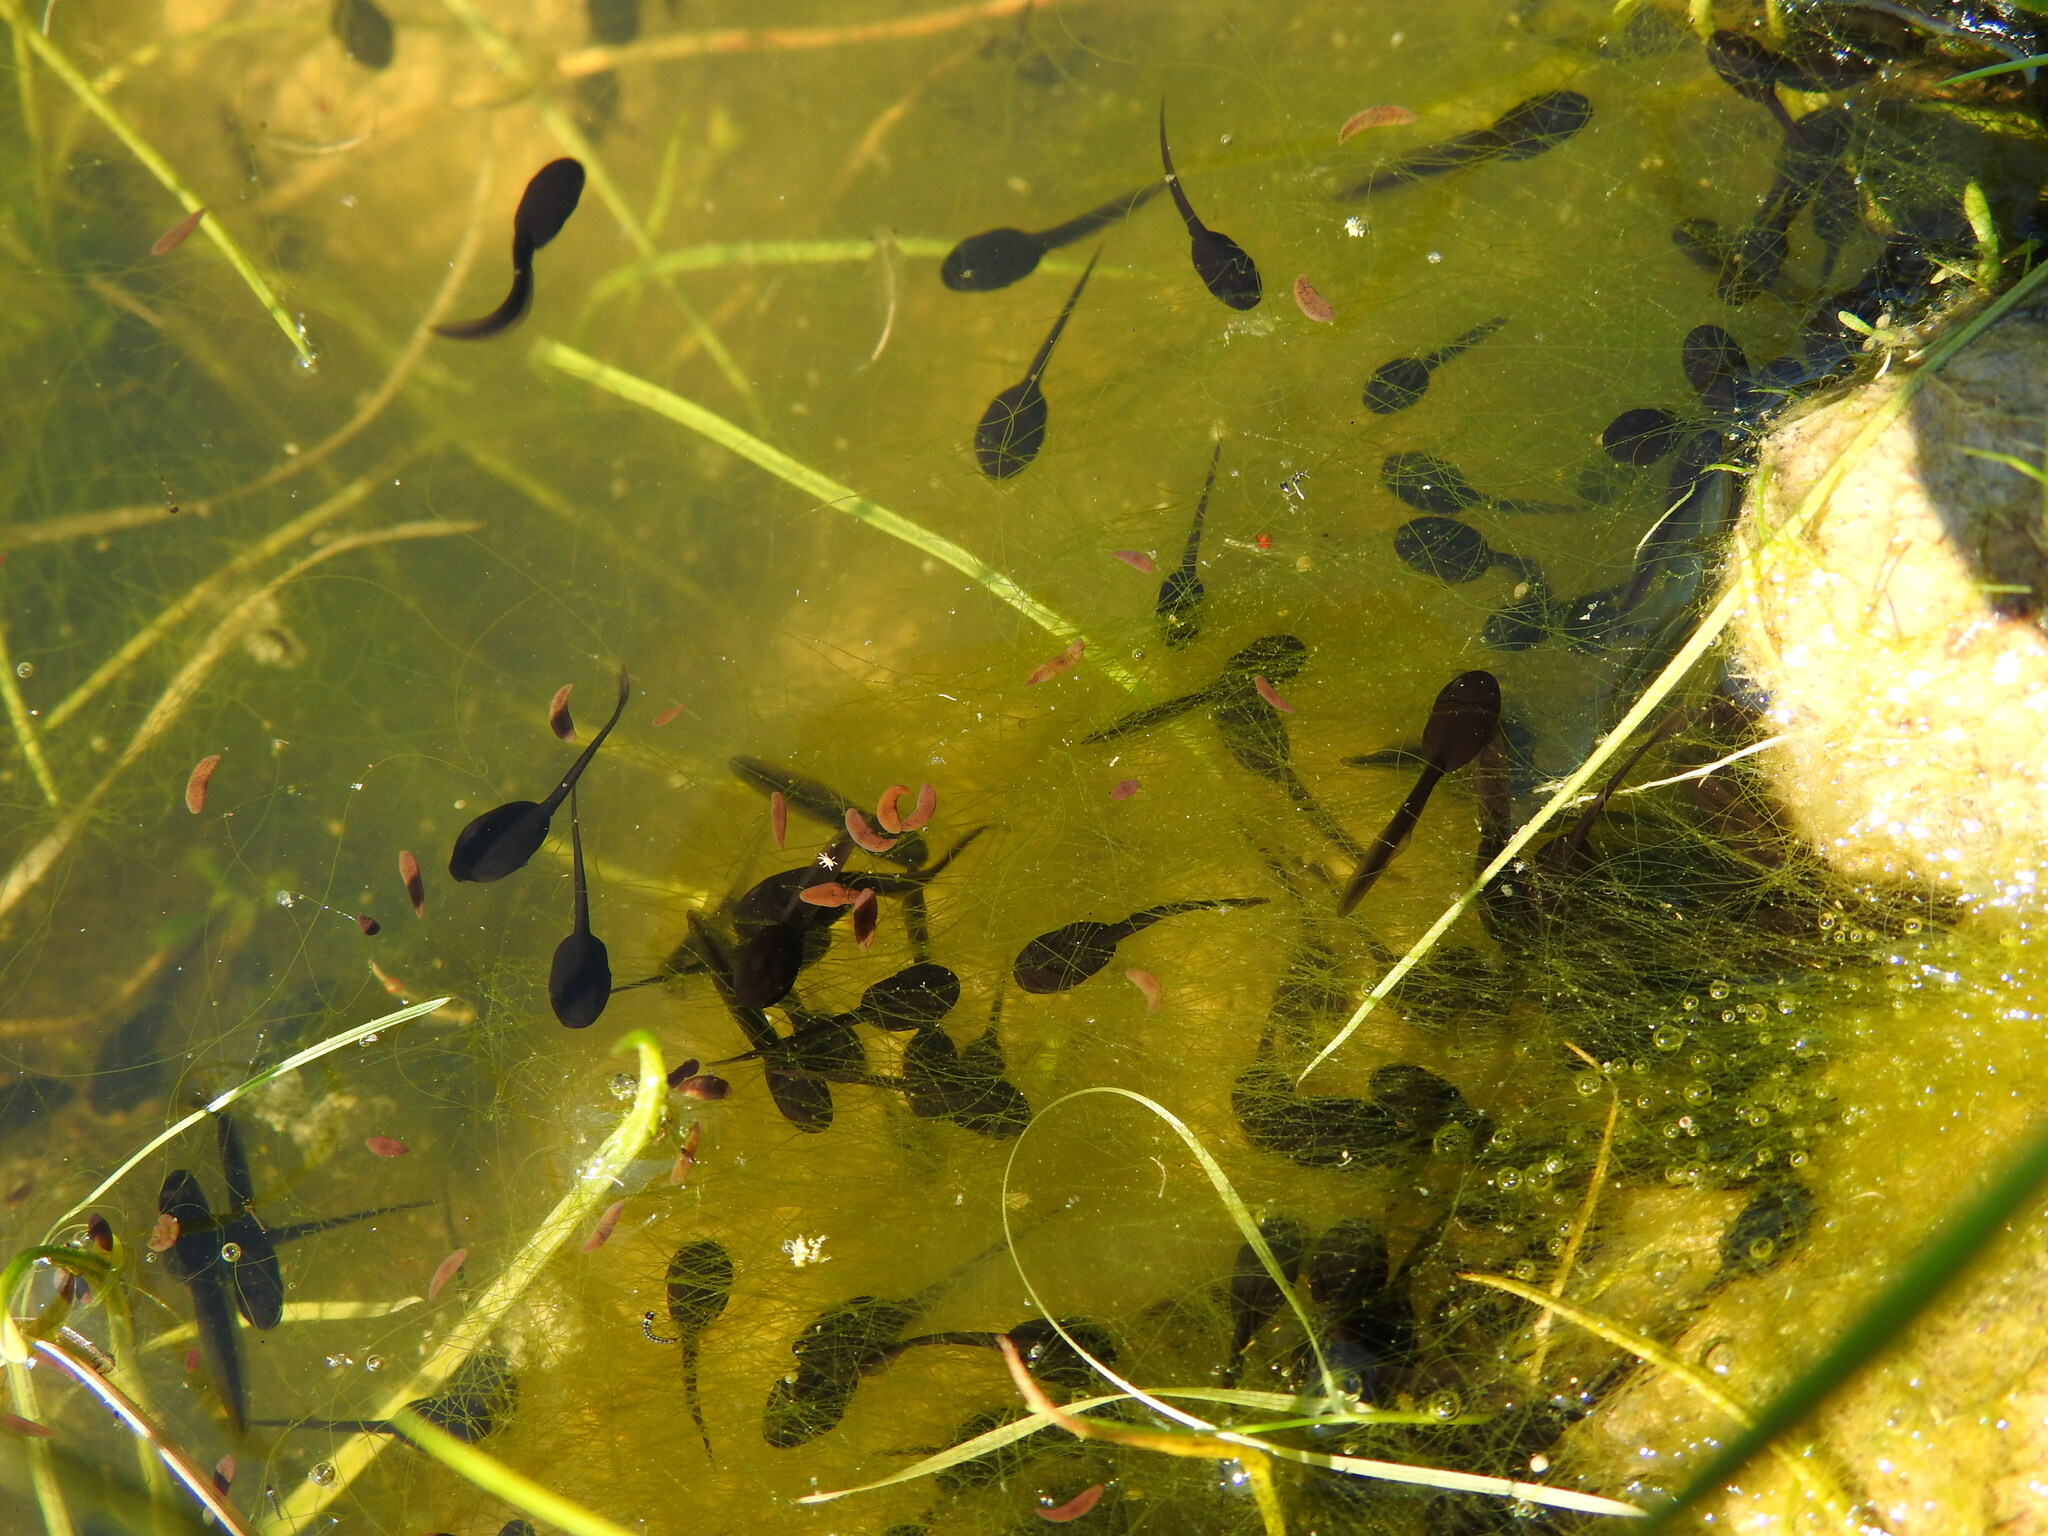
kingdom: Animalia
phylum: Chordata
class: Amphibia
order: Anura
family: Bufonidae
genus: Epidalea
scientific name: Epidalea calamita
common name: Natterjack toad
